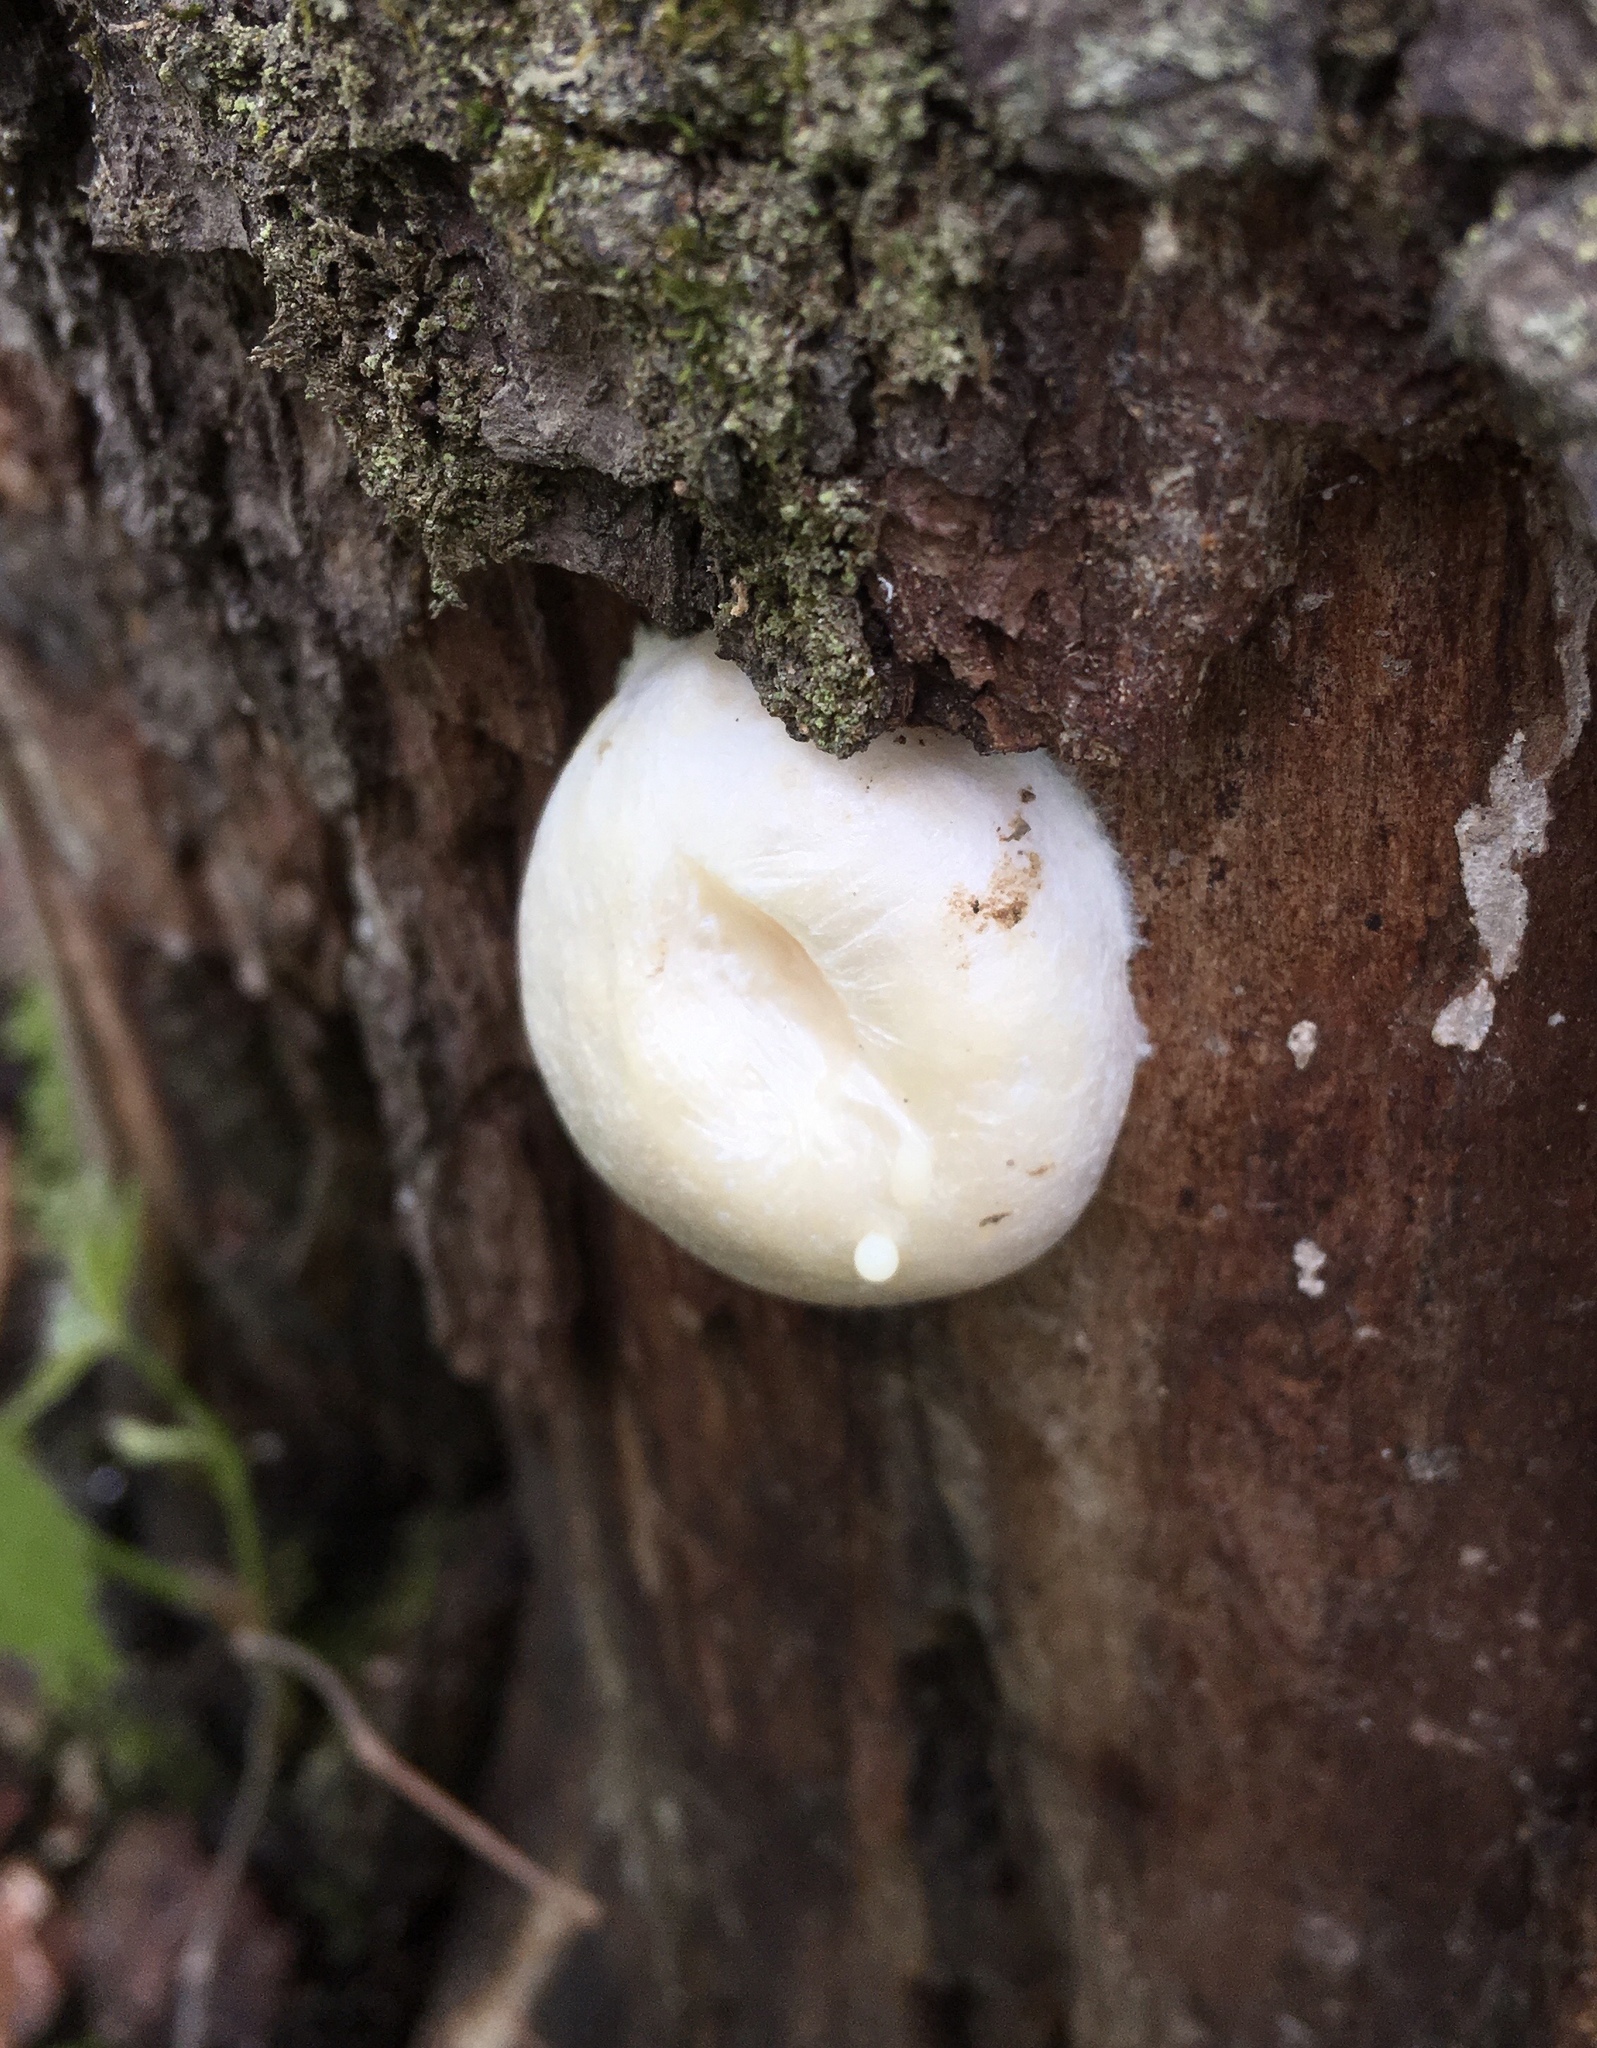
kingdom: Protozoa
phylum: Mycetozoa
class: Myxomycetes
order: Cribrariales
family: Tubiferaceae
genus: Reticularia
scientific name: Reticularia lycoperdon
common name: False puffball
